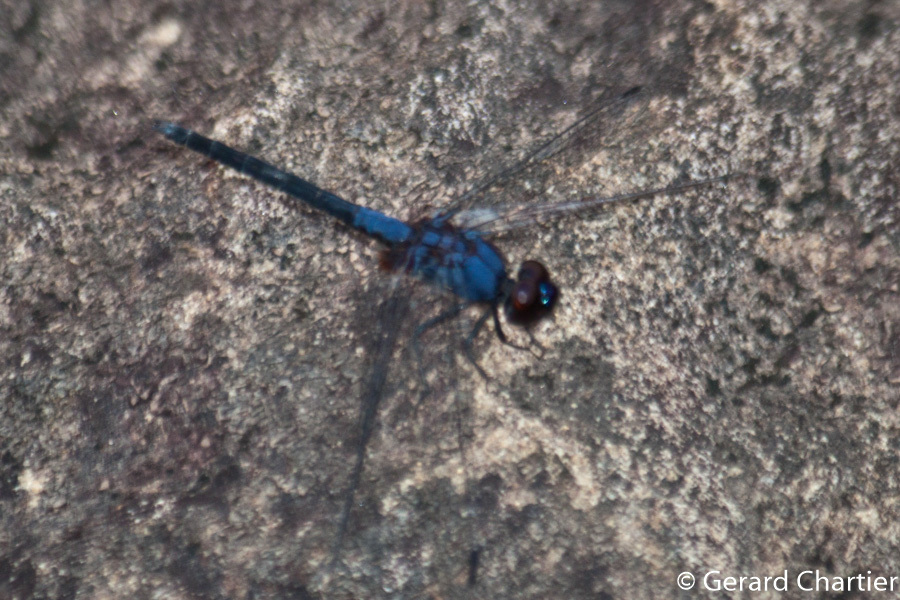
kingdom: Animalia
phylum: Arthropoda
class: Insecta
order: Odonata
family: Libellulidae
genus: Trithemis
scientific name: Trithemis festiva
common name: Indigo dropwing
